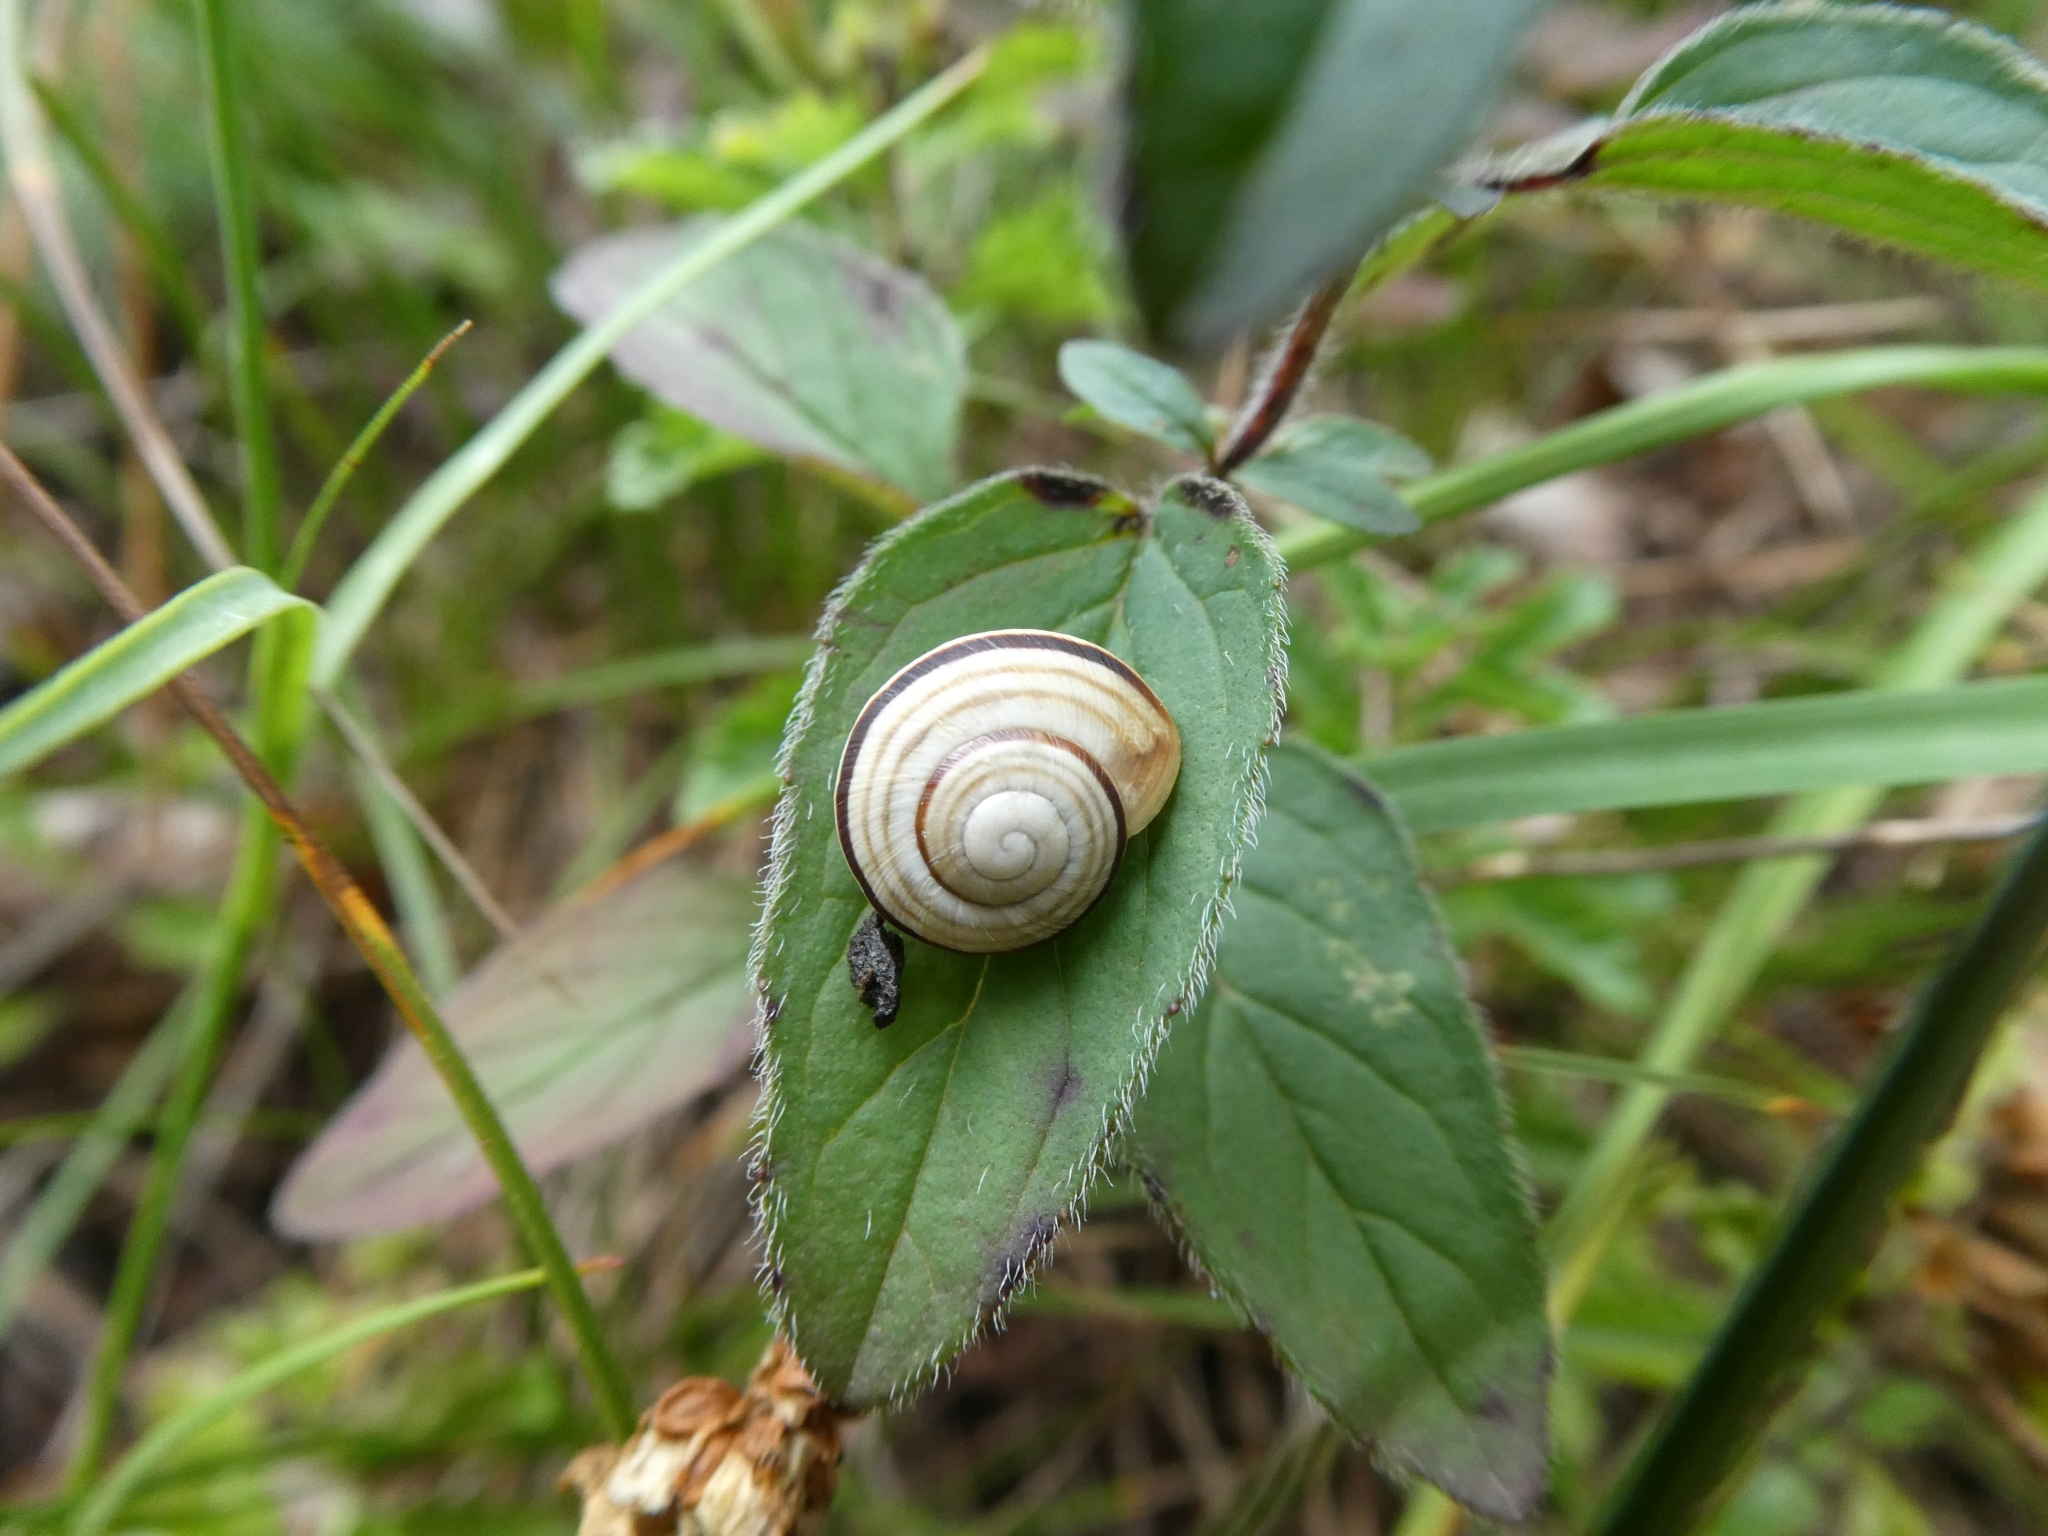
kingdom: Animalia
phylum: Mollusca
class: Gastropoda
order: Stylommatophora
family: Helicidae
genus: Caucasotachea
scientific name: Caucasotachea vindobonensis
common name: European helicid land snail
